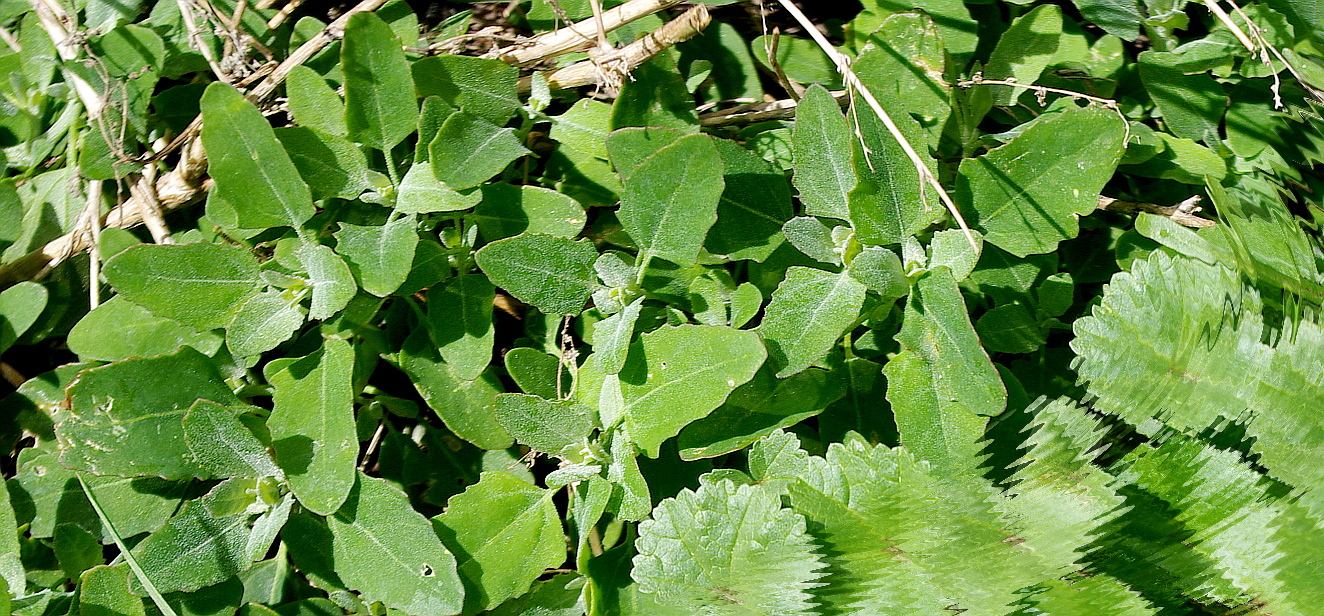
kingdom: Plantae
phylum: Tracheophyta
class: Magnoliopsida
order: Caryophyllales
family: Amaranthaceae
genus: Chenopodium
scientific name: Chenopodium album
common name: Fat-hen
